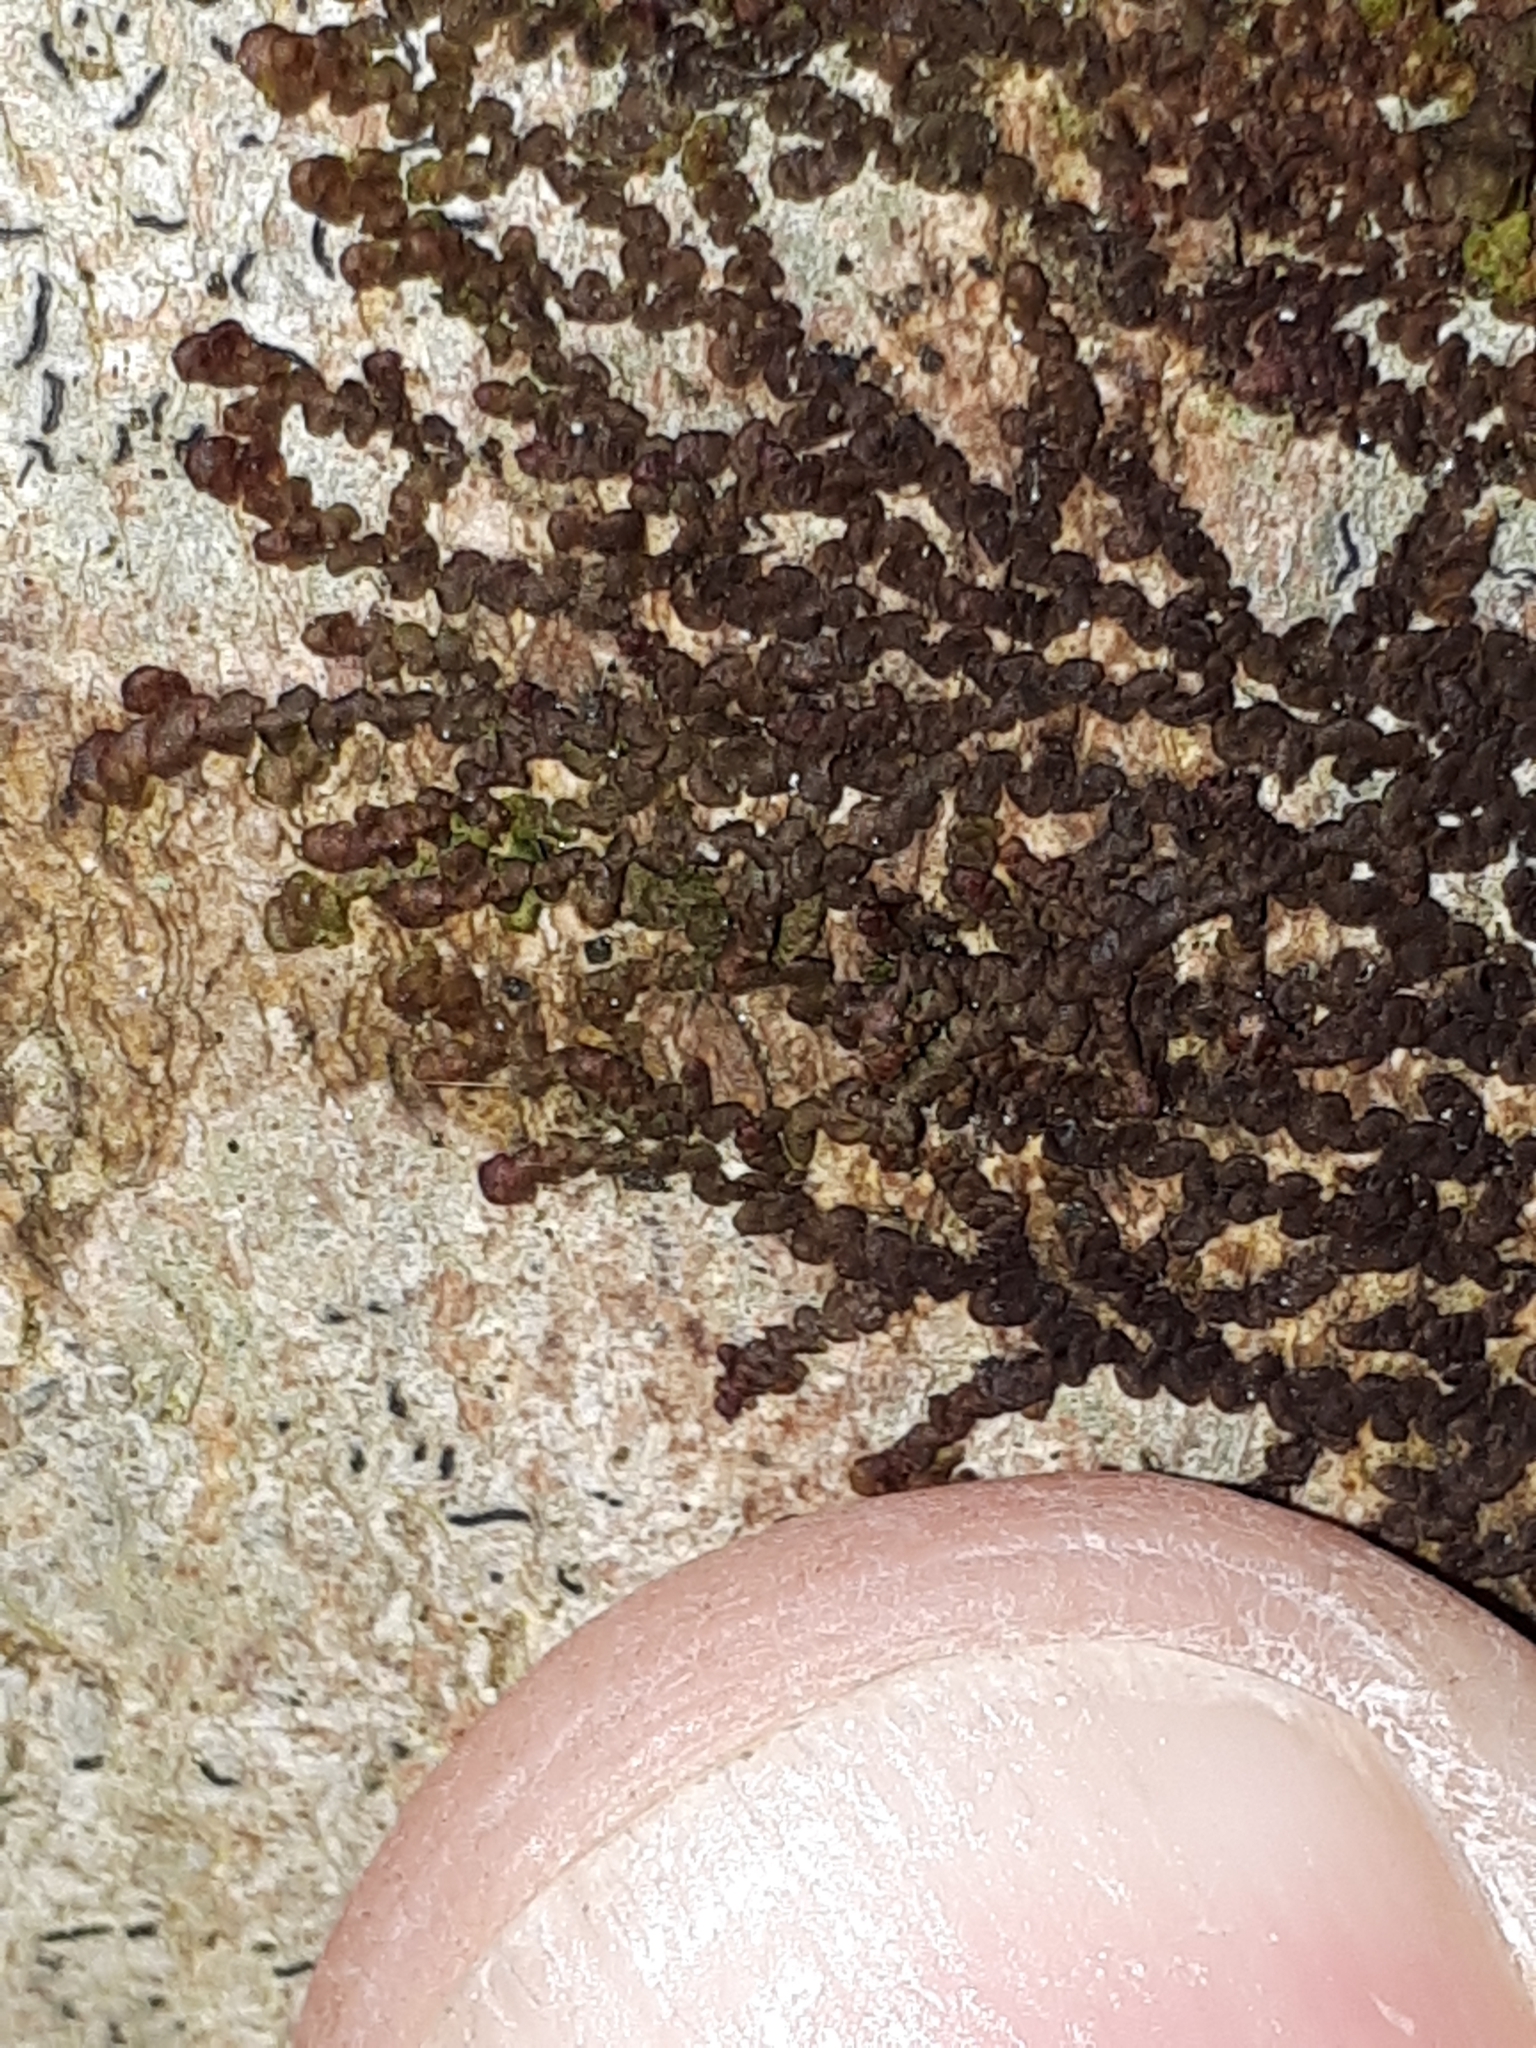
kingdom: Plantae
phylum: Marchantiophyta
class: Jungermanniopsida
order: Porellales
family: Frullaniaceae
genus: Frullania
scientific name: Frullania dilatata
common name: Dilated scalewort
